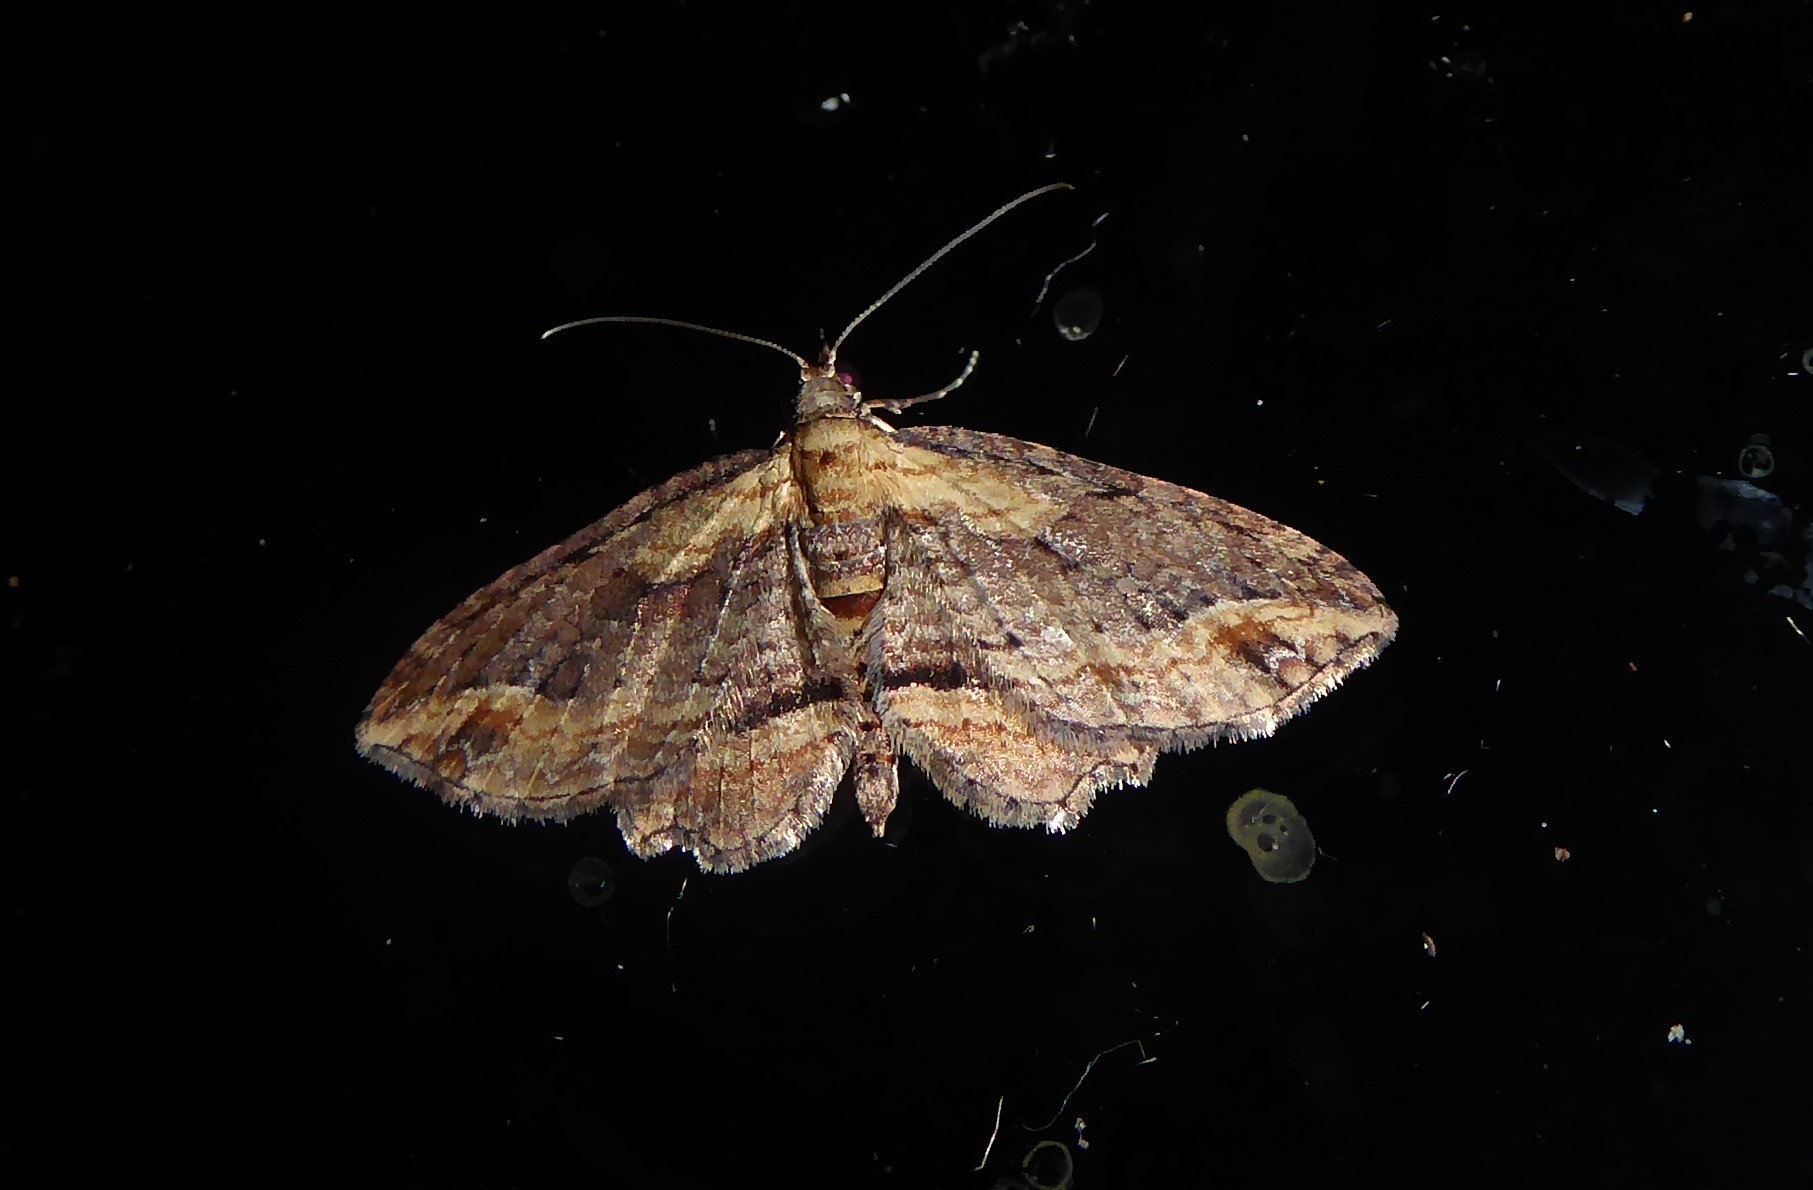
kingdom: Animalia
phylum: Arthropoda
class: Insecta
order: Lepidoptera
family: Geometridae
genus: Chloroclystis
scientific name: Chloroclystis filata
